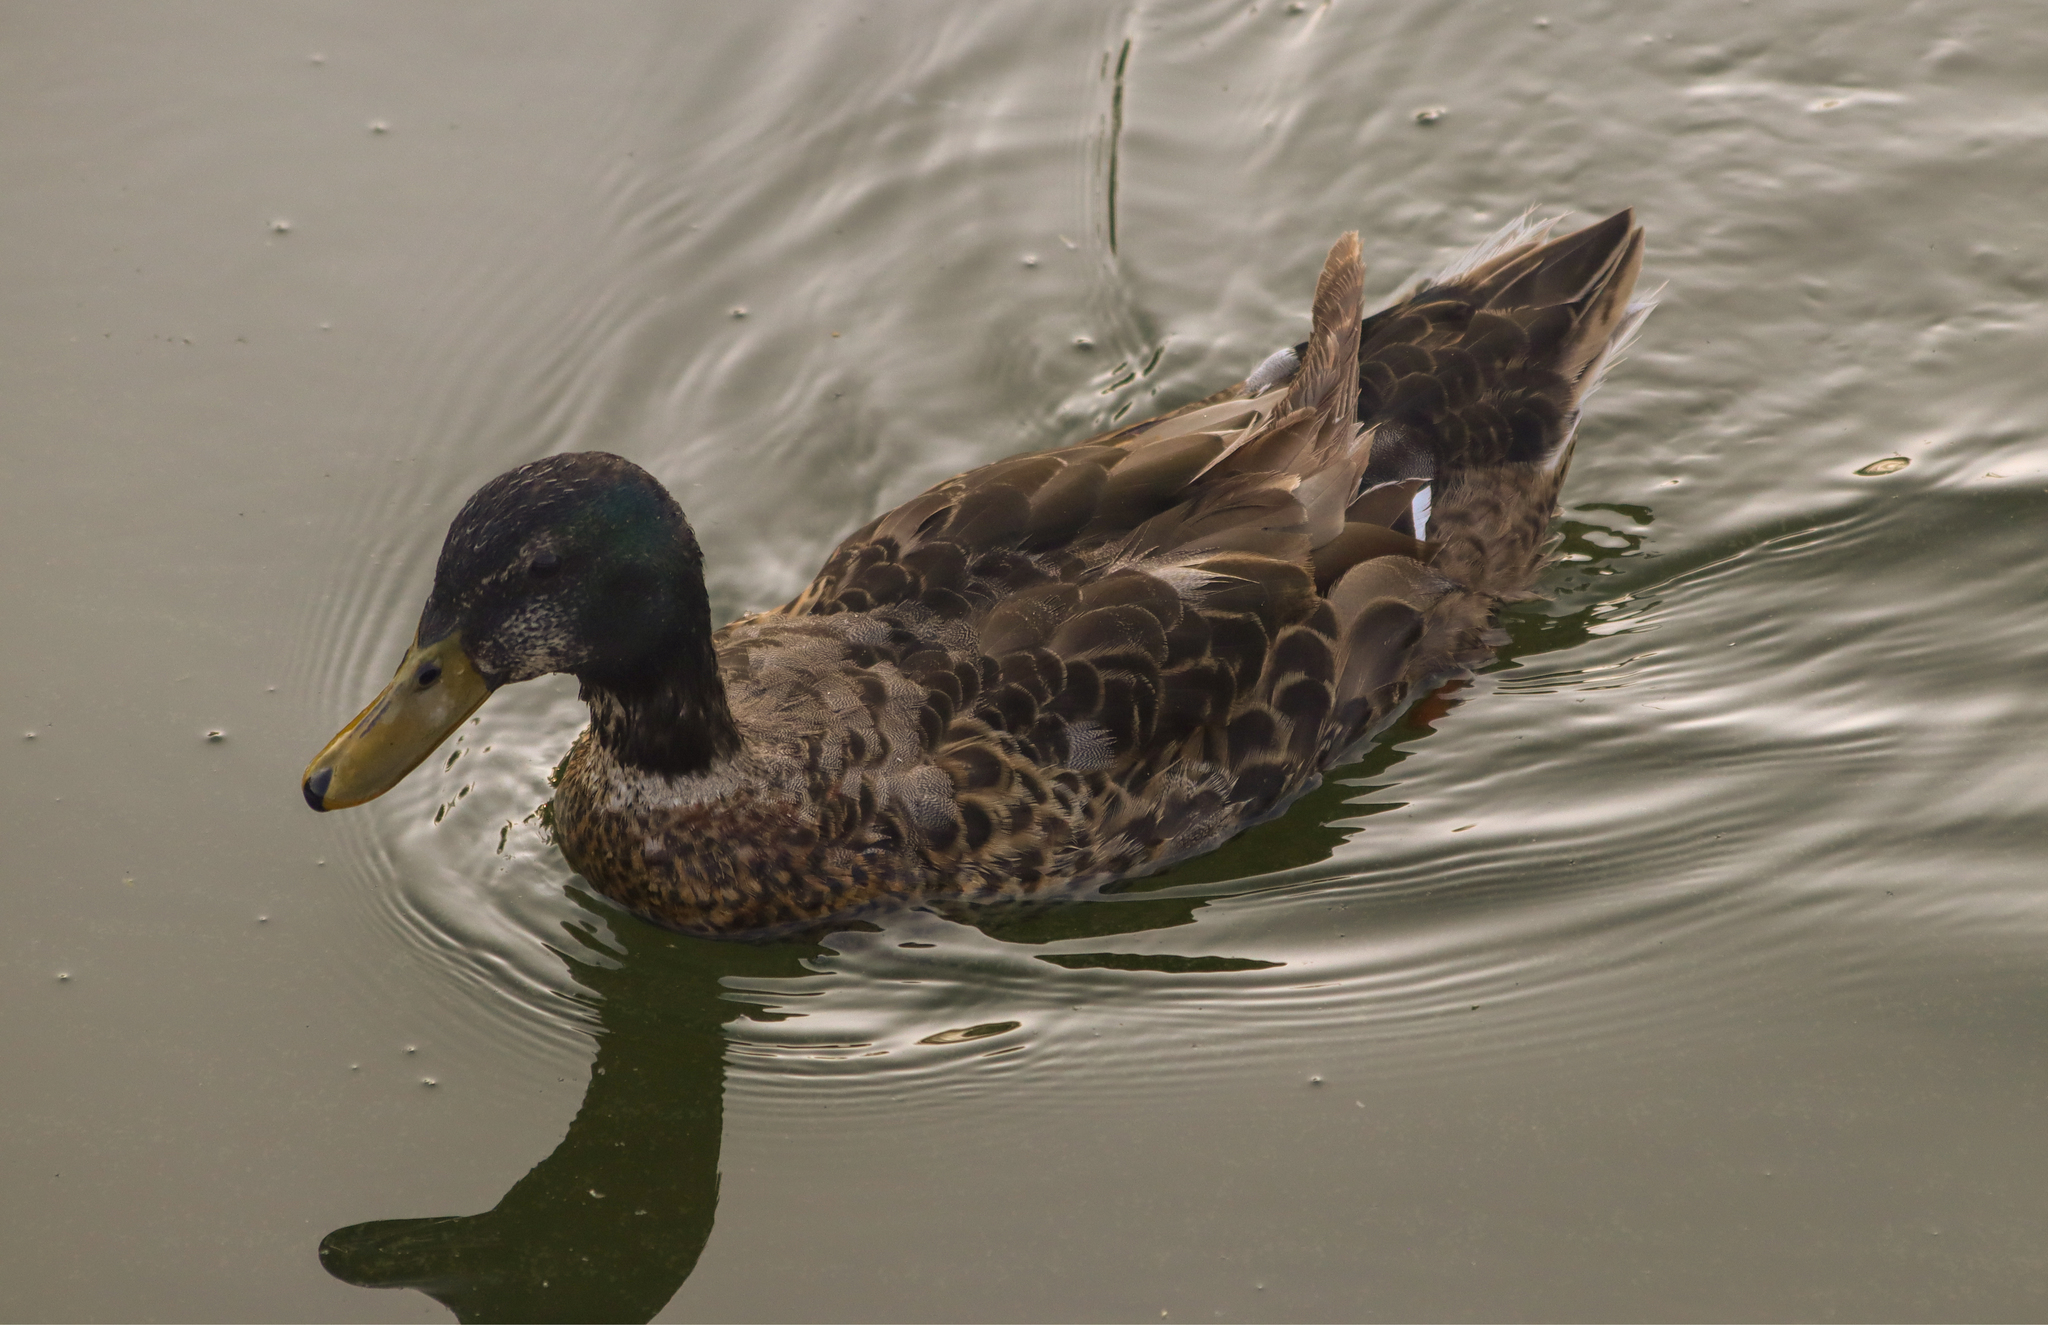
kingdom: Animalia
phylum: Chordata
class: Aves
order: Anseriformes
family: Anatidae
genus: Anas
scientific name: Anas platyrhynchos
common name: Mallard
